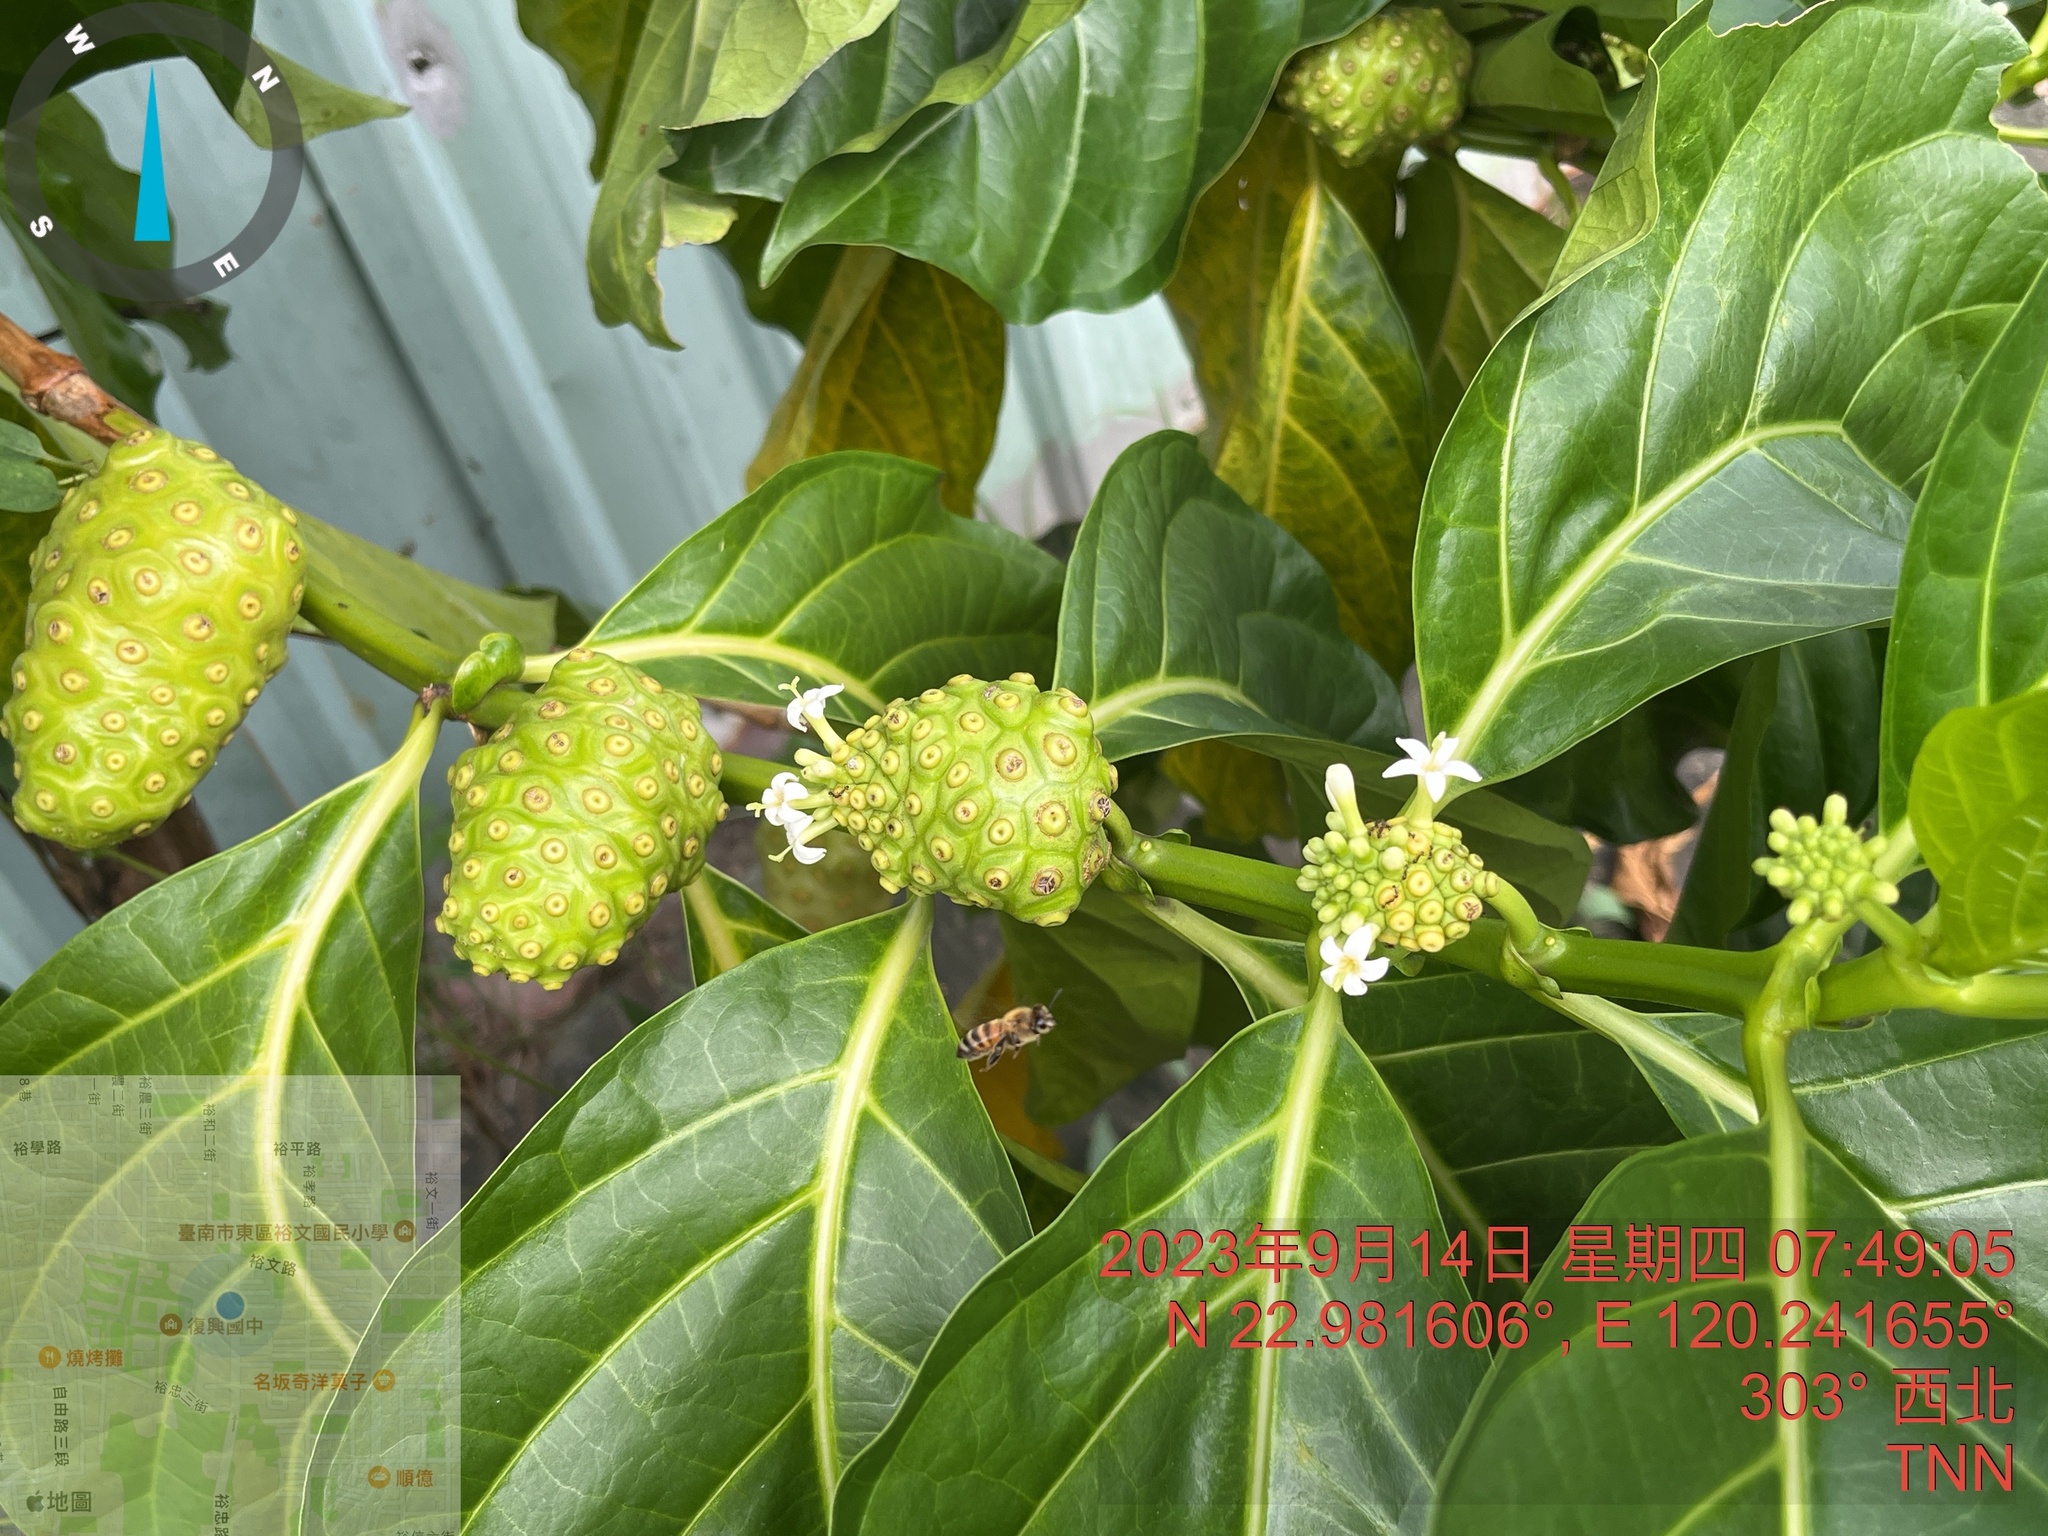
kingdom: Plantae
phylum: Tracheophyta
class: Magnoliopsida
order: Gentianales
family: Rubiaceae
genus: Morinda
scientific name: Morinda citrifolia
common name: Indian-mulberry
